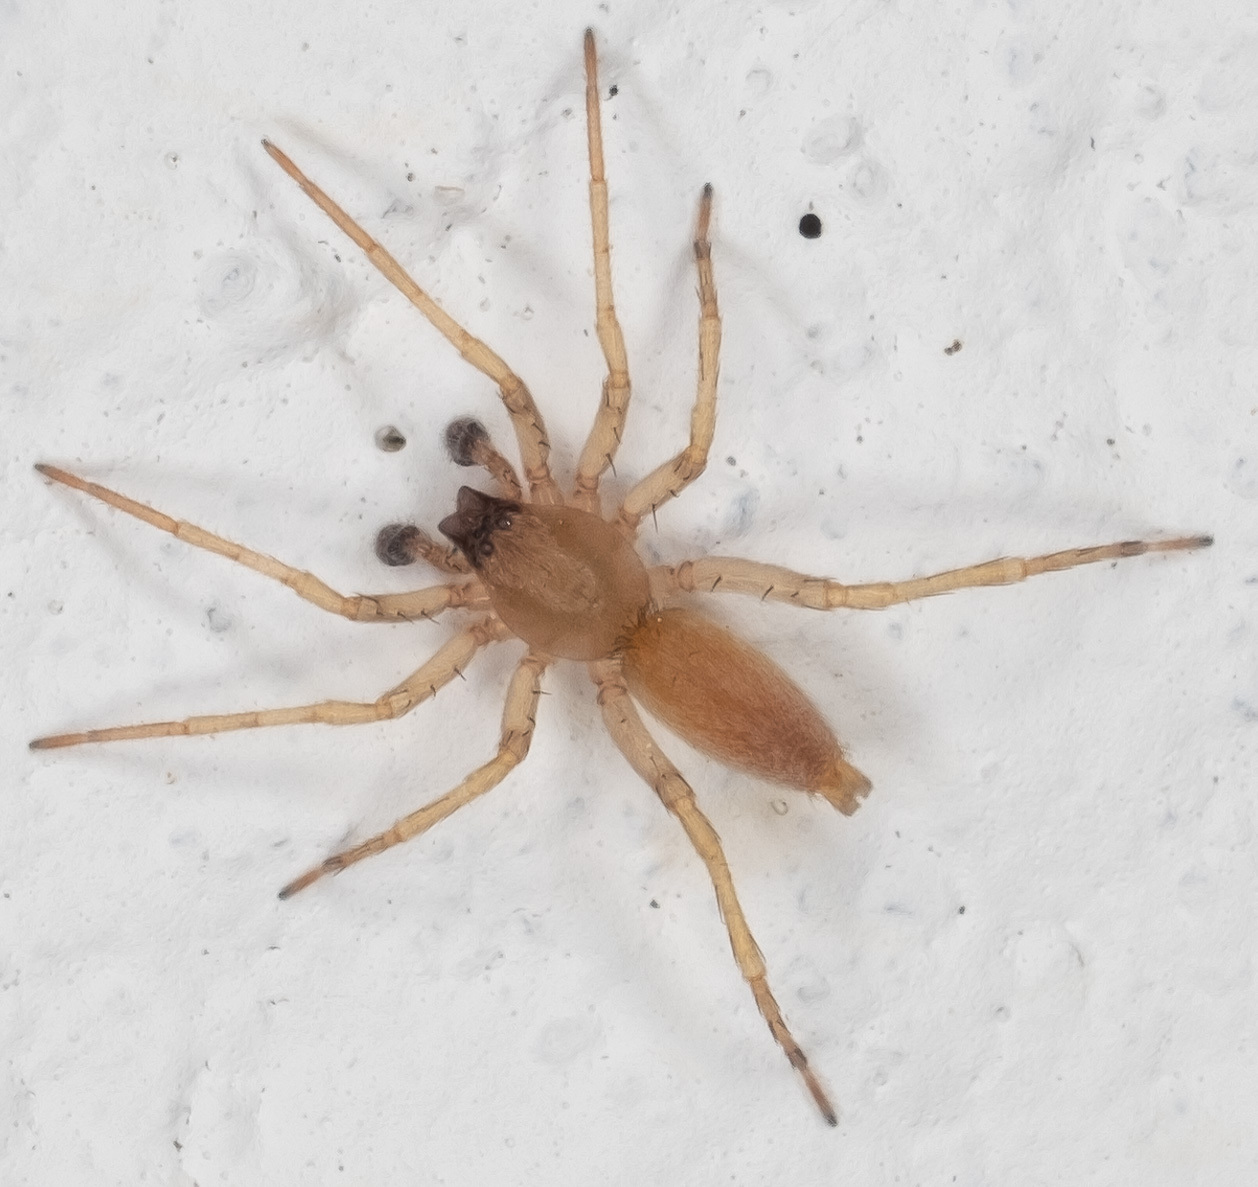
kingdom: Animalia
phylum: Arthropoda
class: Arachnida
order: Araneae
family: Clubionidae
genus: Clubiona
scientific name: Clubiona
